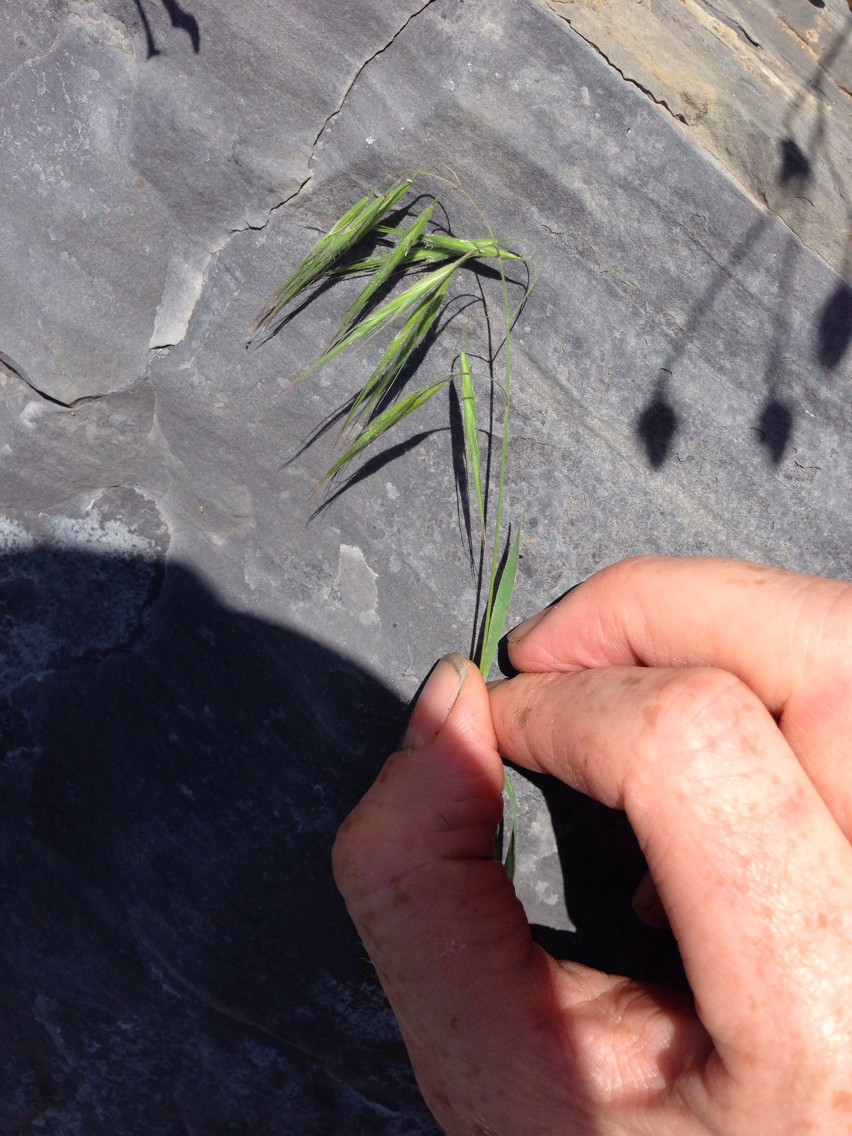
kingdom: Plantae
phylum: Tracheophyta
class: Liliopsida
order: Poales
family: Poaceae
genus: Bromus
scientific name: Bromus tectorum
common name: Cheatgrass
